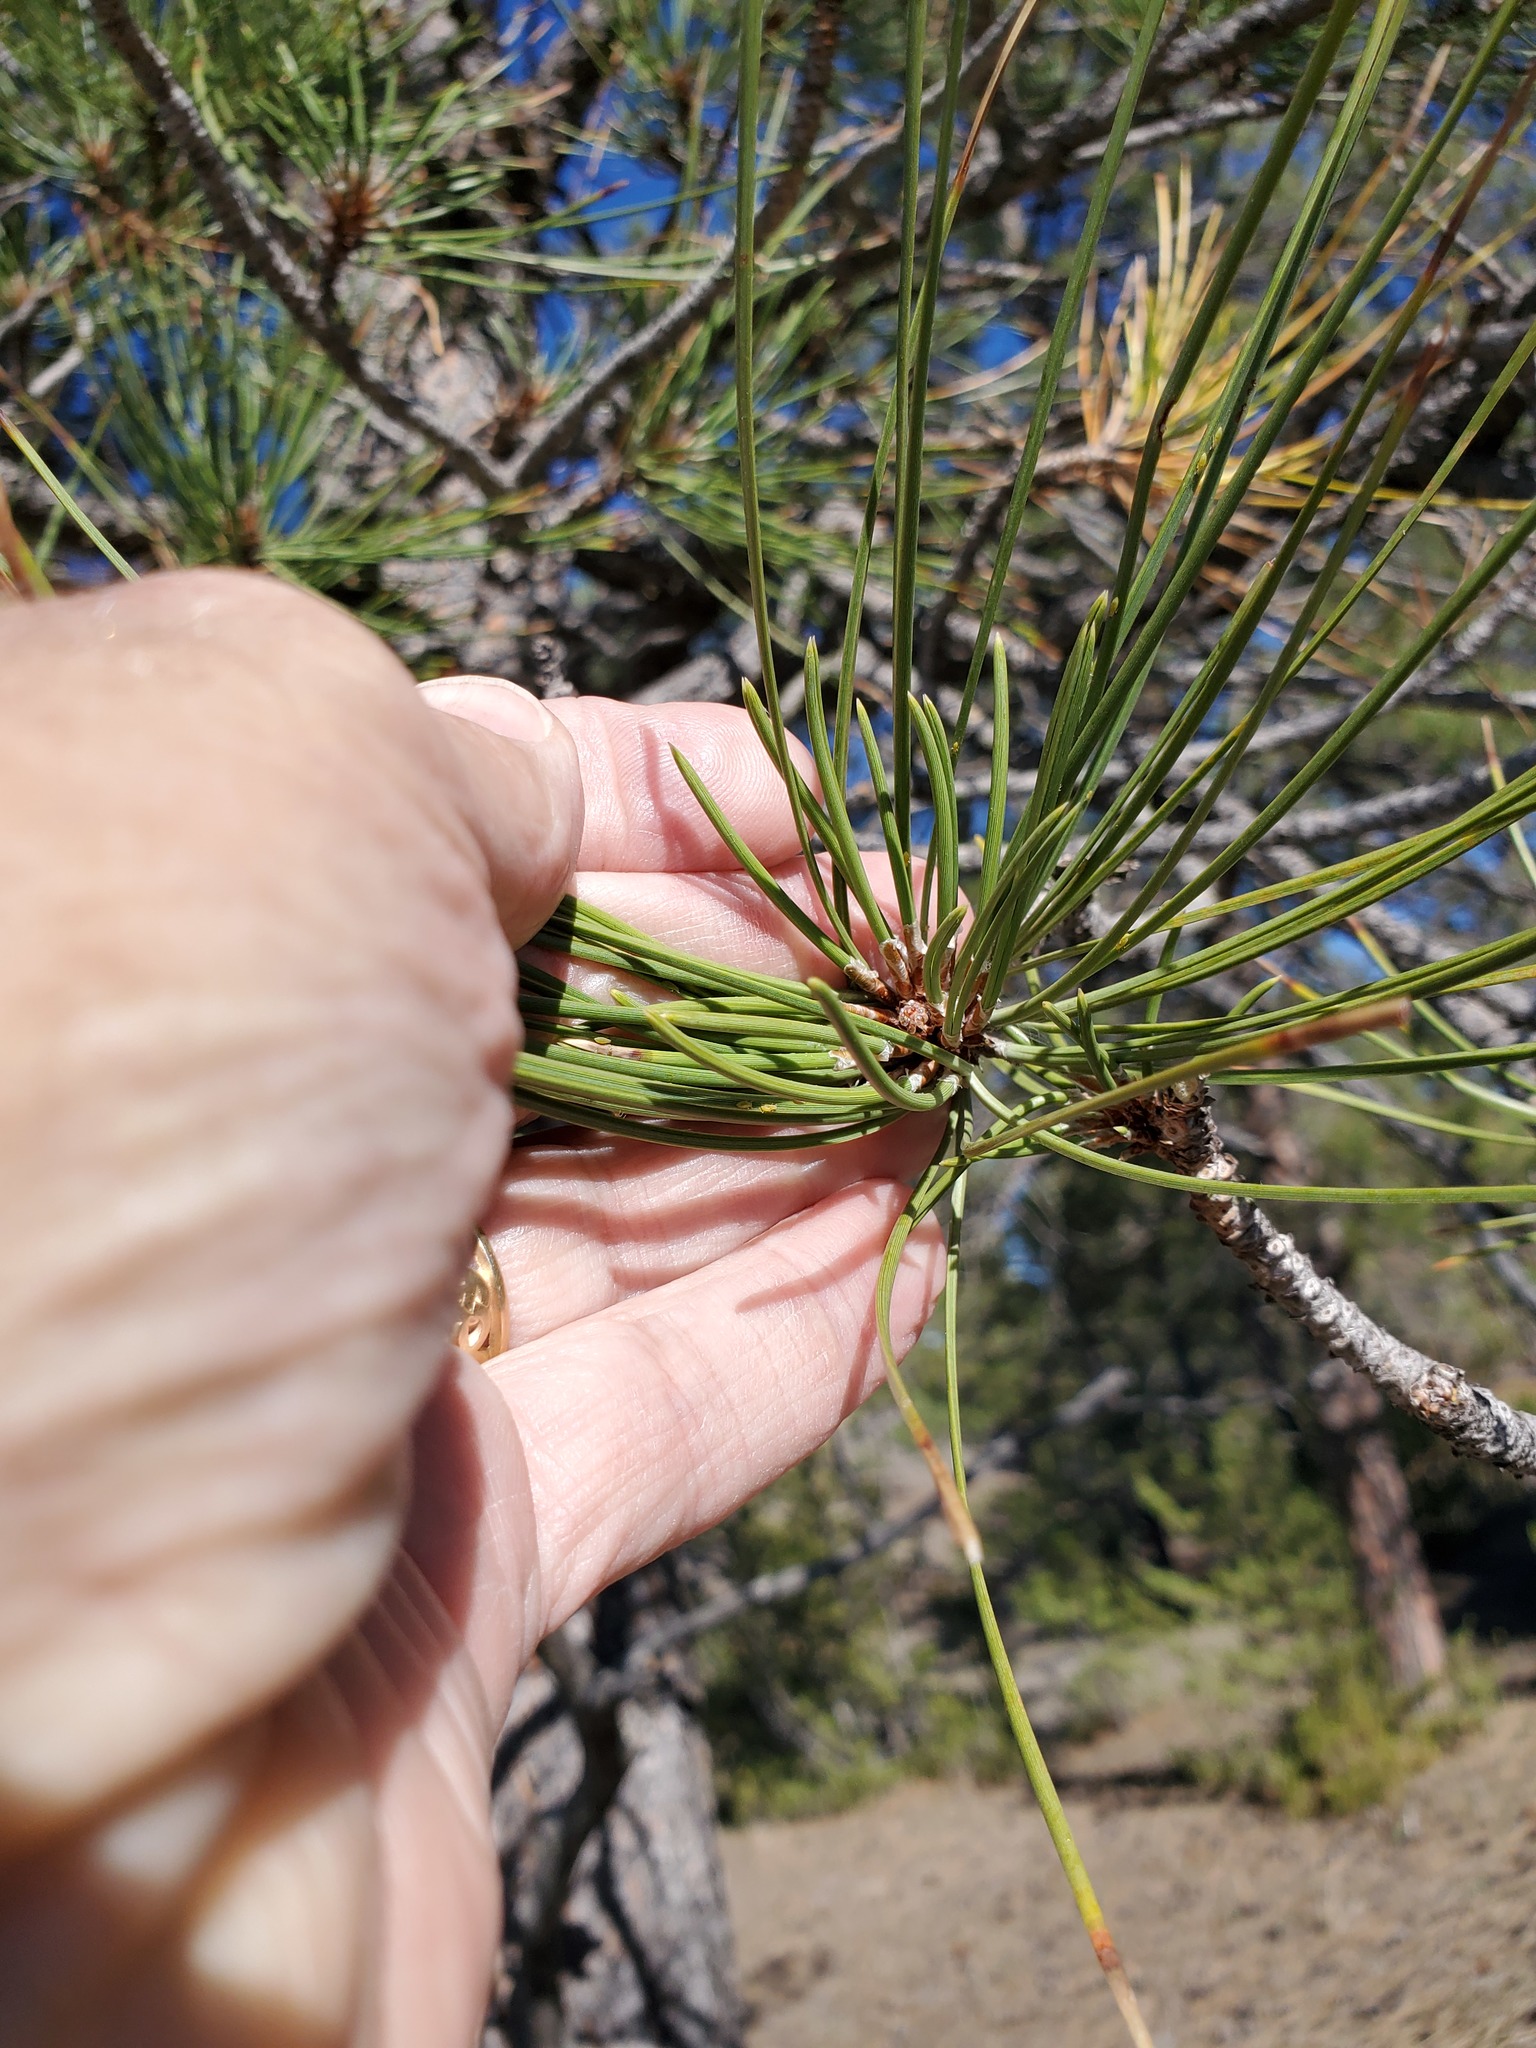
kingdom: Plantae
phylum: Tracheophyta
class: Pinopsida
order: Pinales
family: Pinaceae
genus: Pinus
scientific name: Pinus ponderosa
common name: Western yellow-pine
